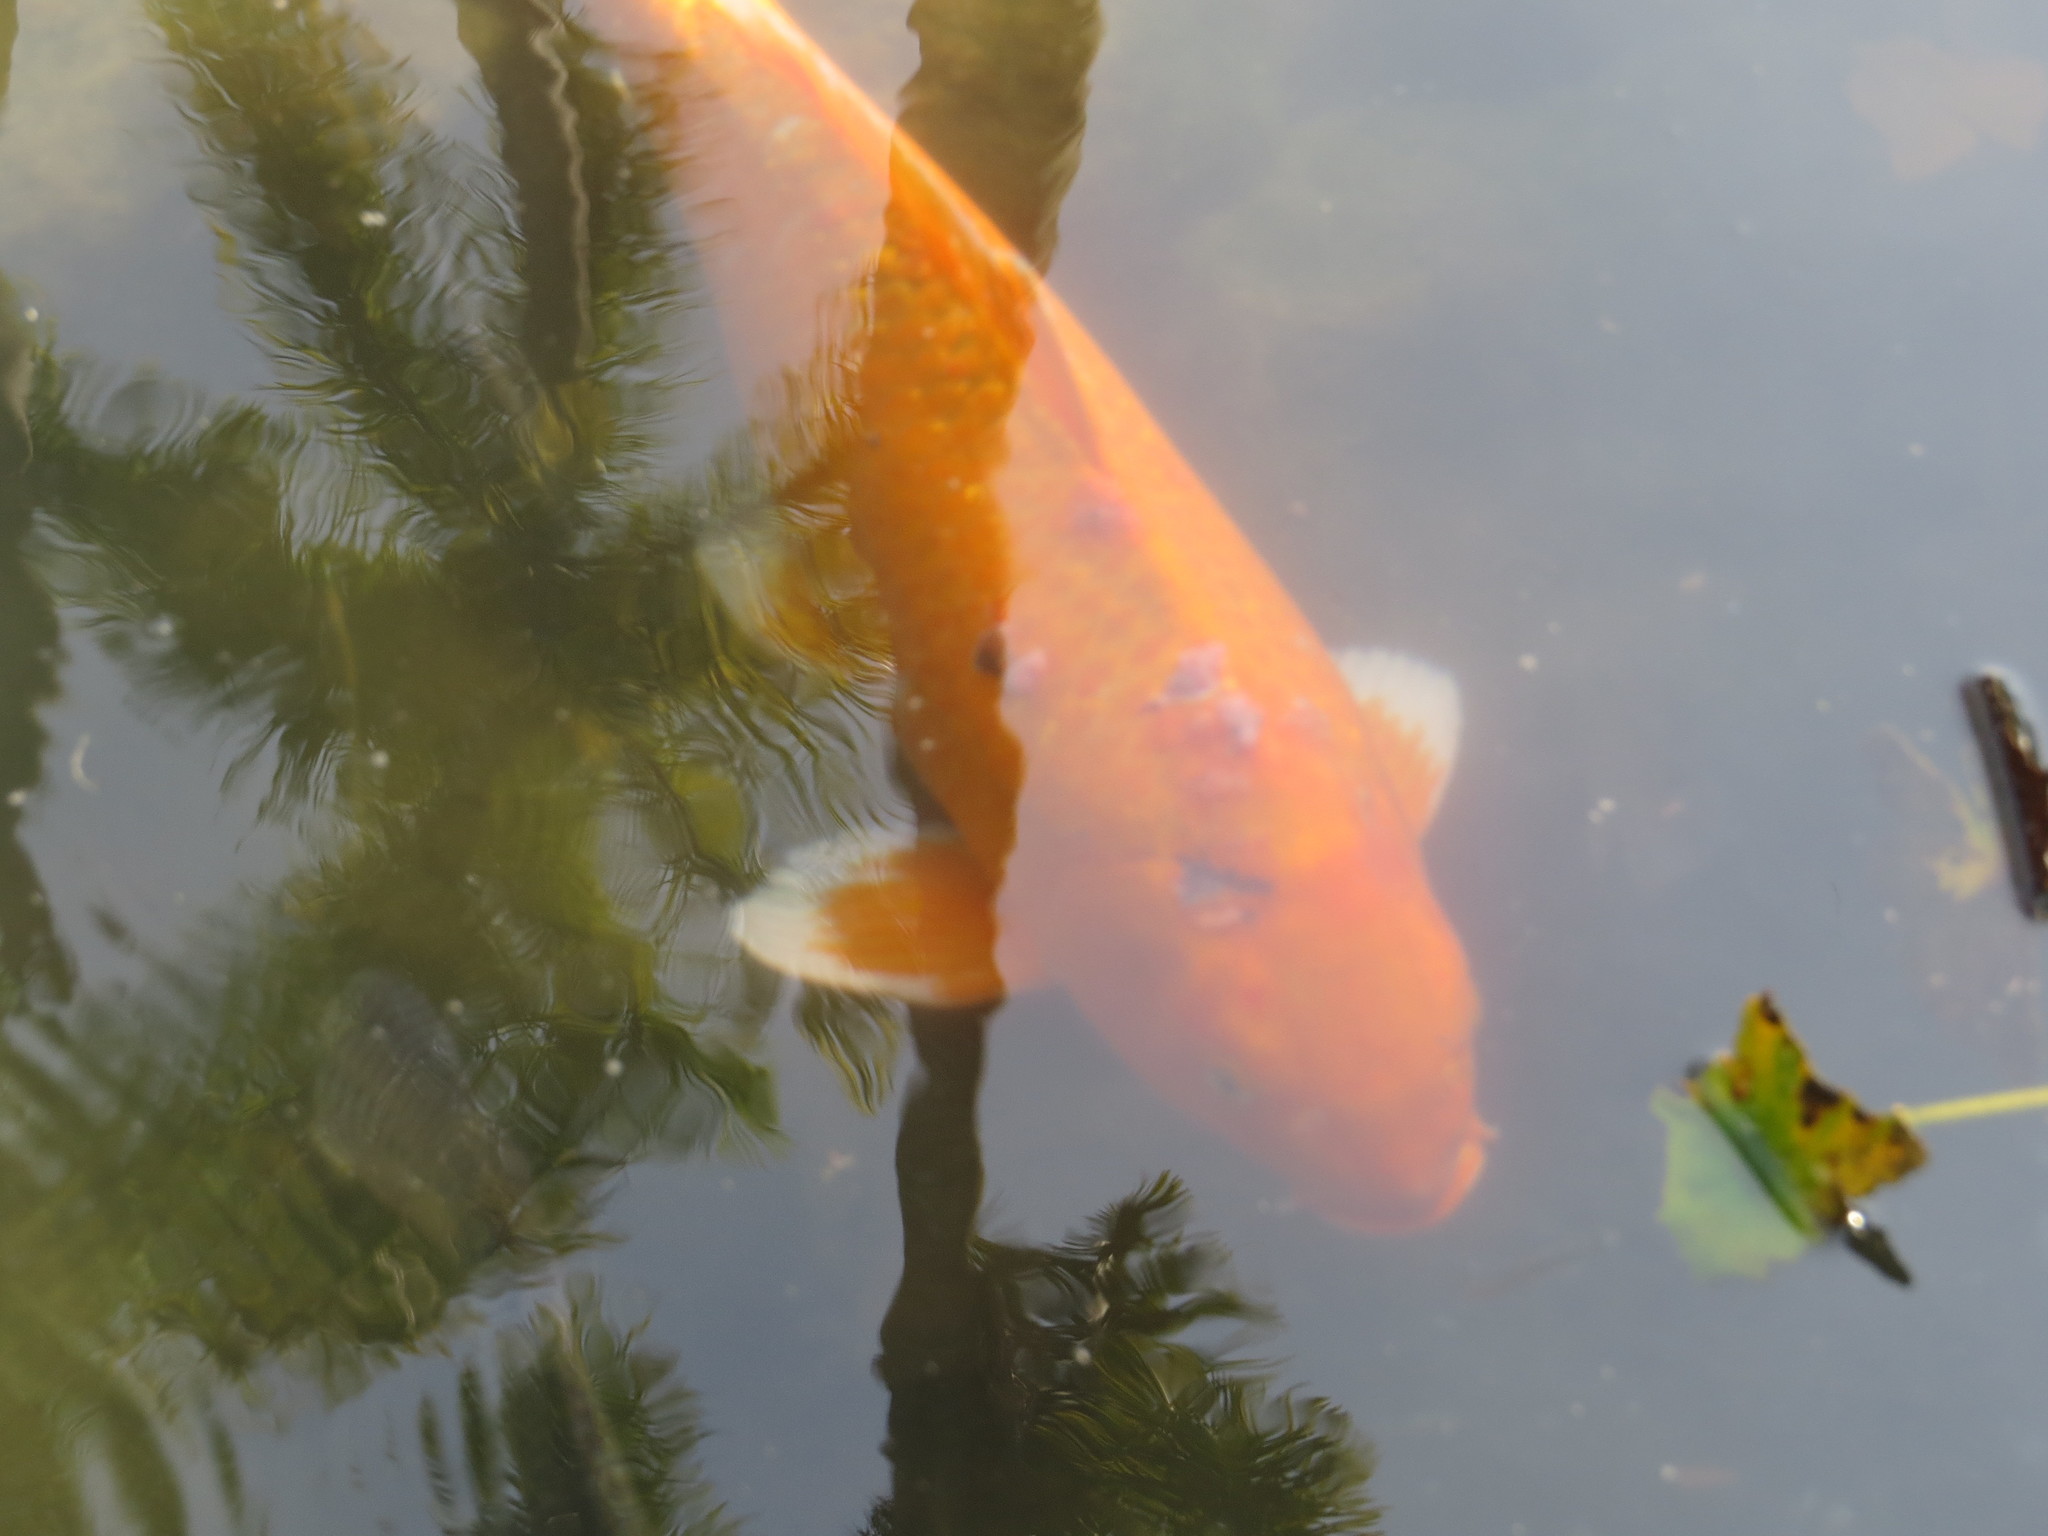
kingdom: Animalia
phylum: Chordata
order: Cypriniformes
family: Cyprinidae
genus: Cyprinus
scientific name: Cyprinus rubrofuscus
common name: Koi
